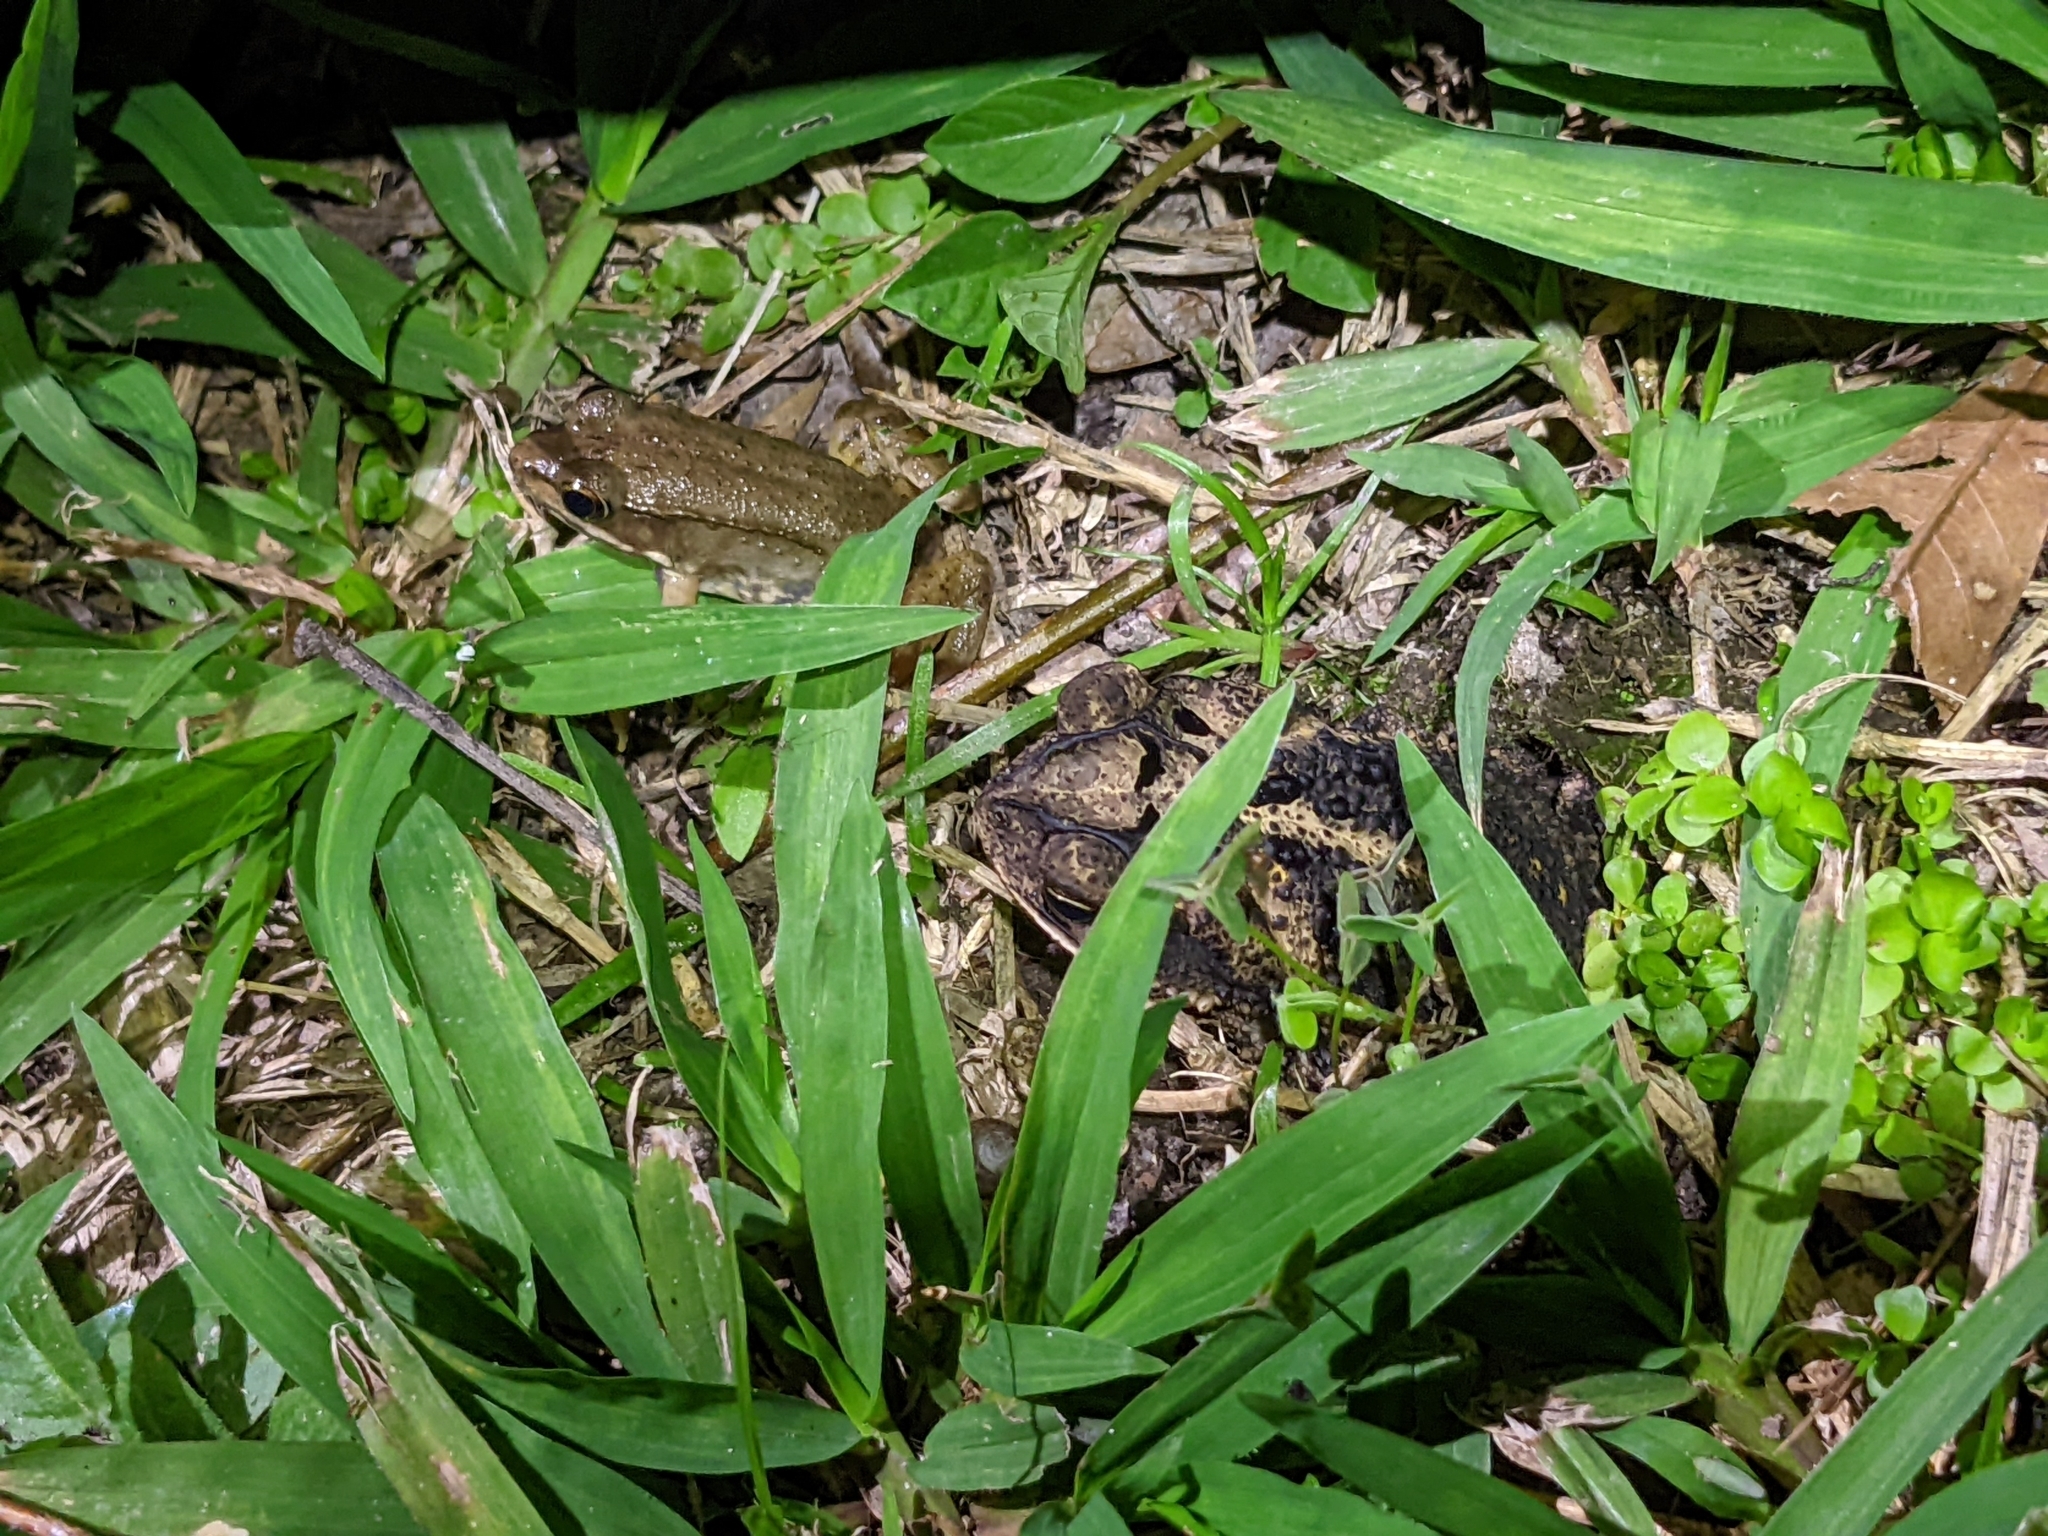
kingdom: Animalia
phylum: Chordata
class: Amphibia
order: Anura
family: Bufonidae
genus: Incilius
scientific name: Incilius nebulifer
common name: Gulf coast toad
